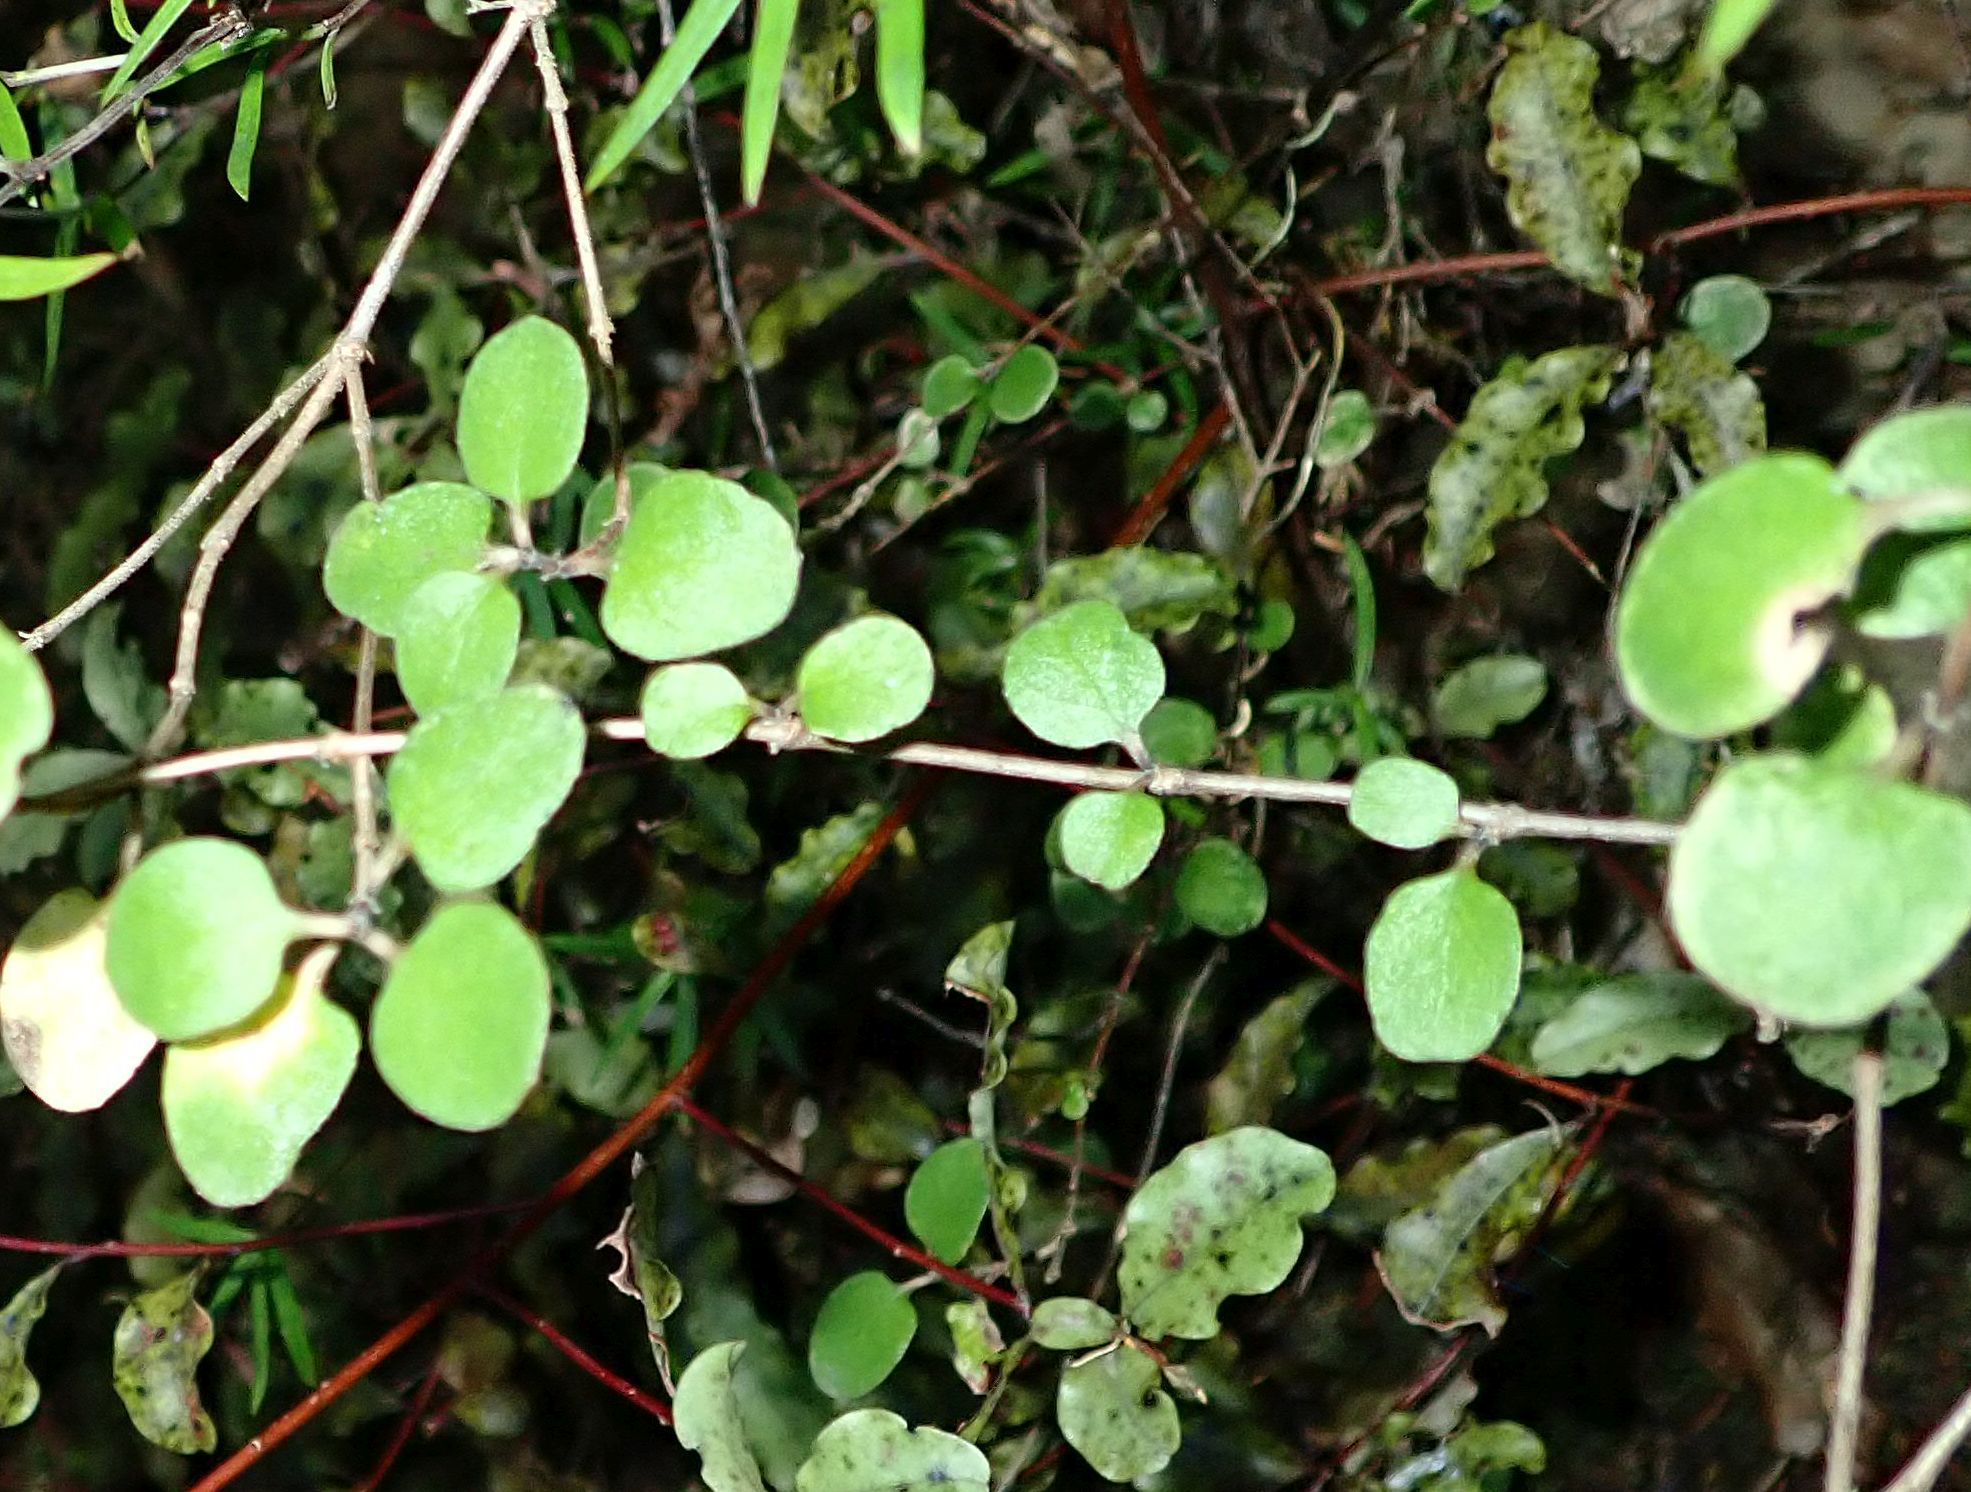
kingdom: Plantae
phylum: Tracheophyta
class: Magnoliopsida
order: Gentianales
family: Rubiaceae
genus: Coprosma
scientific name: Coprosma crassifolia
